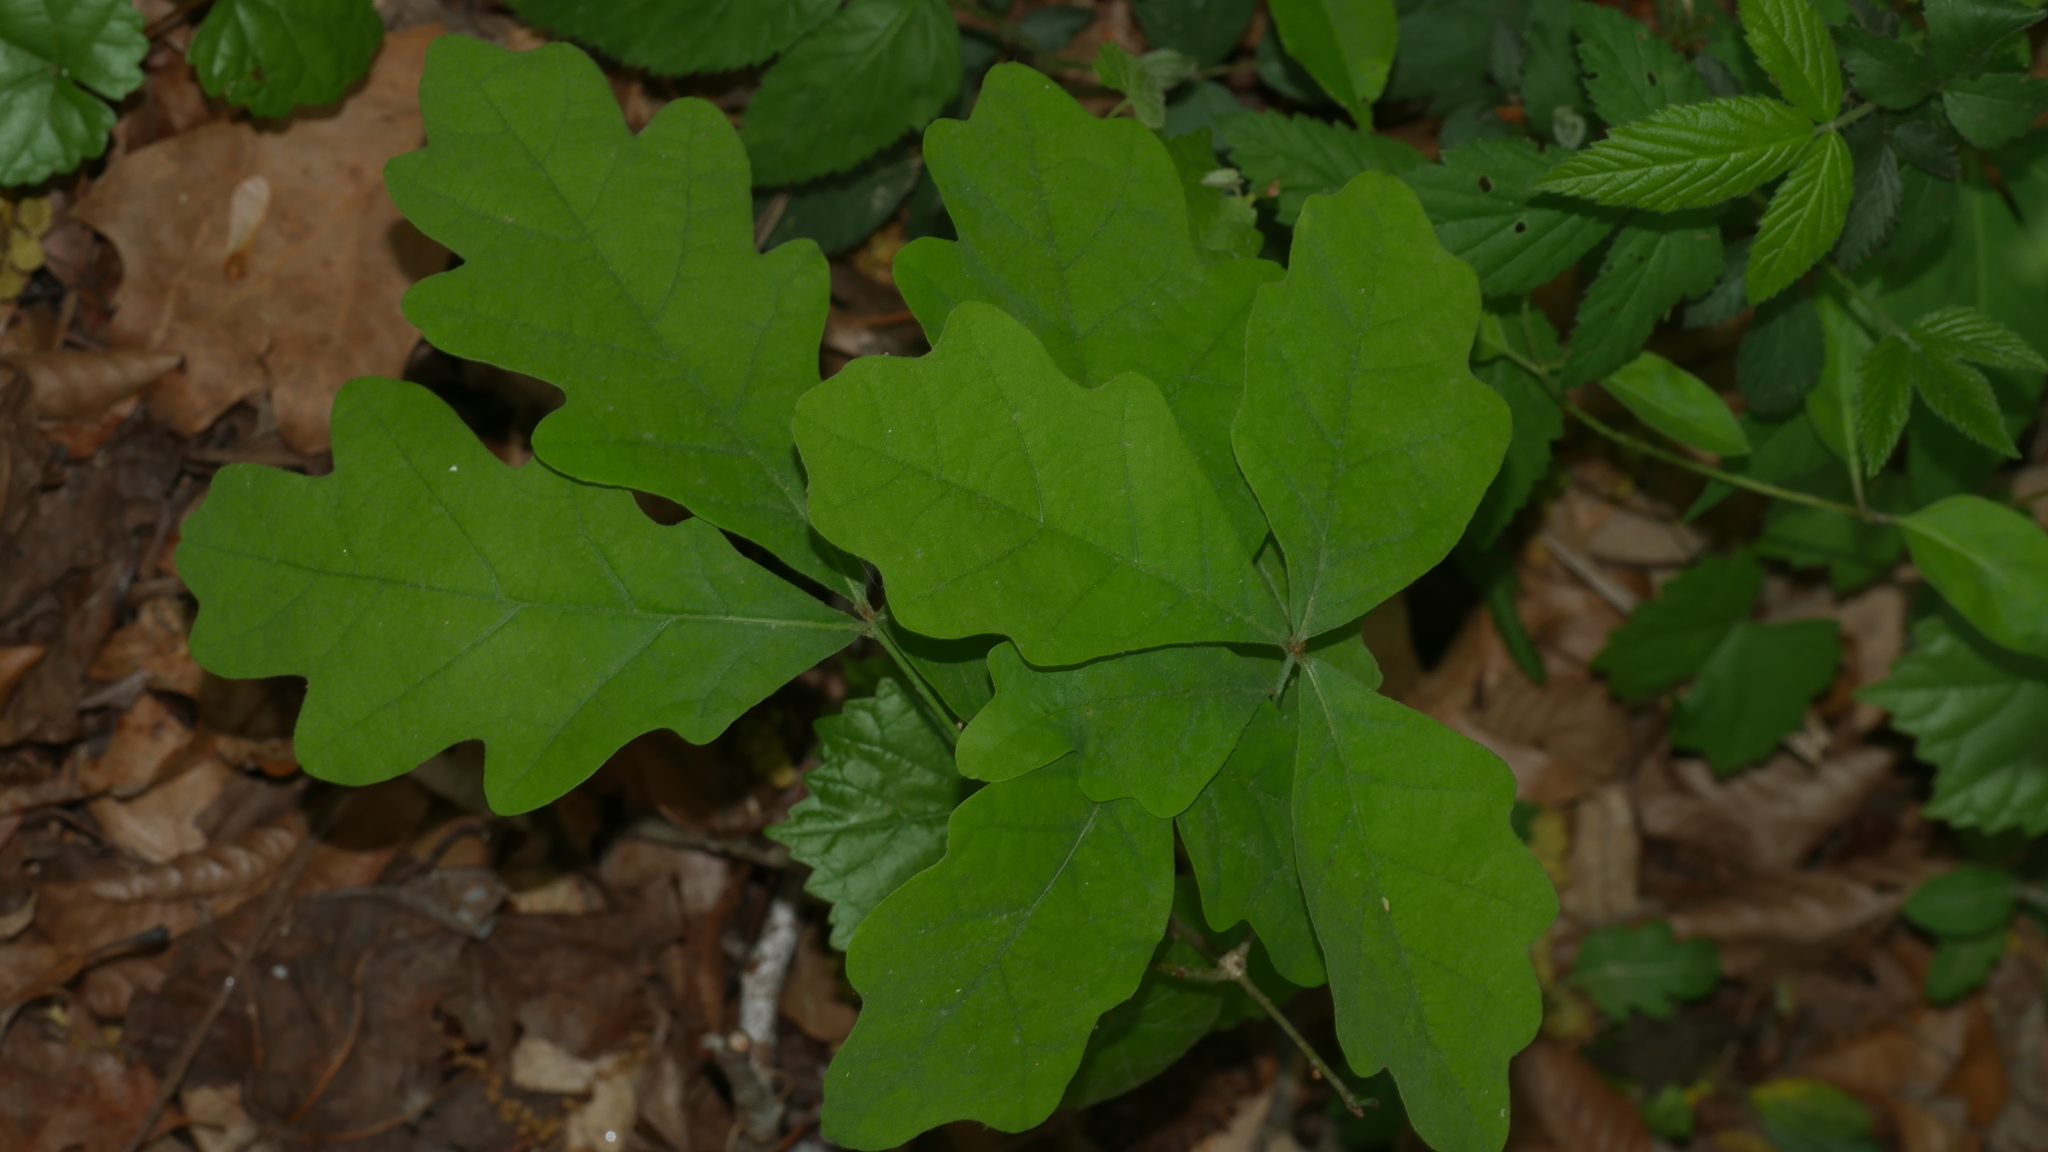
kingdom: Plantae
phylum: Tracheophyta
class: Magnoliopsida
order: Fagales
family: Fagaceae
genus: Quercus
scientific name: Quercus alba
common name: White oak
